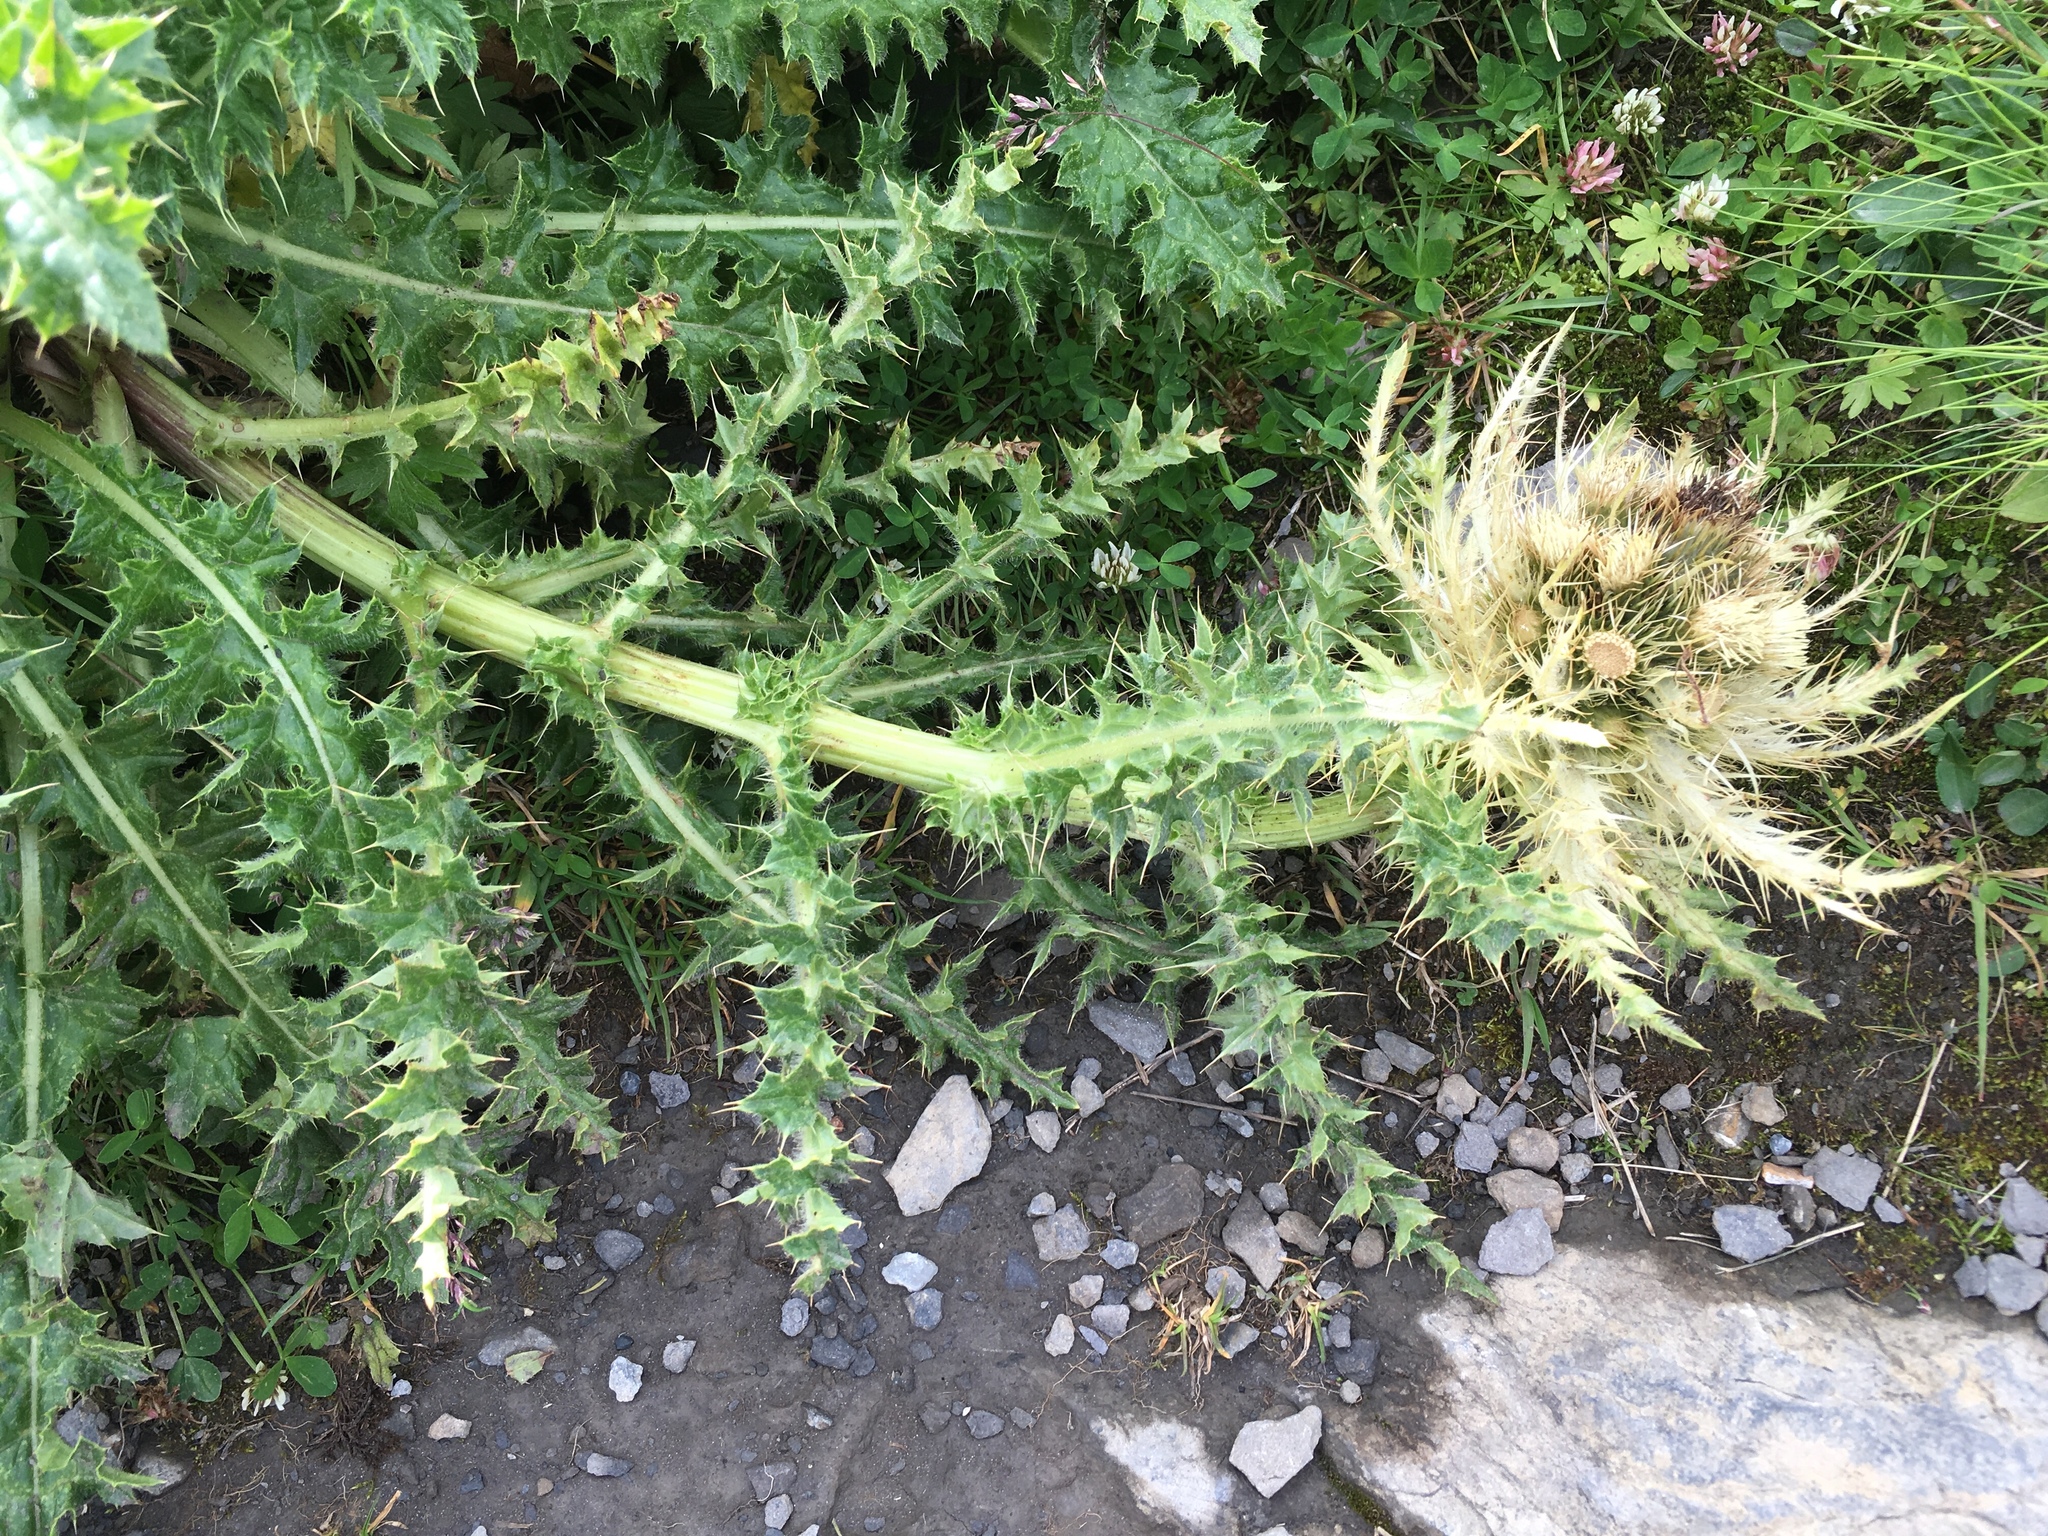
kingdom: Plantae
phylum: Tracheophyta
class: Magnoliopsida
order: Asterales
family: Asteraceae
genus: Cirsium
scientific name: Cirsium spinosissimum
